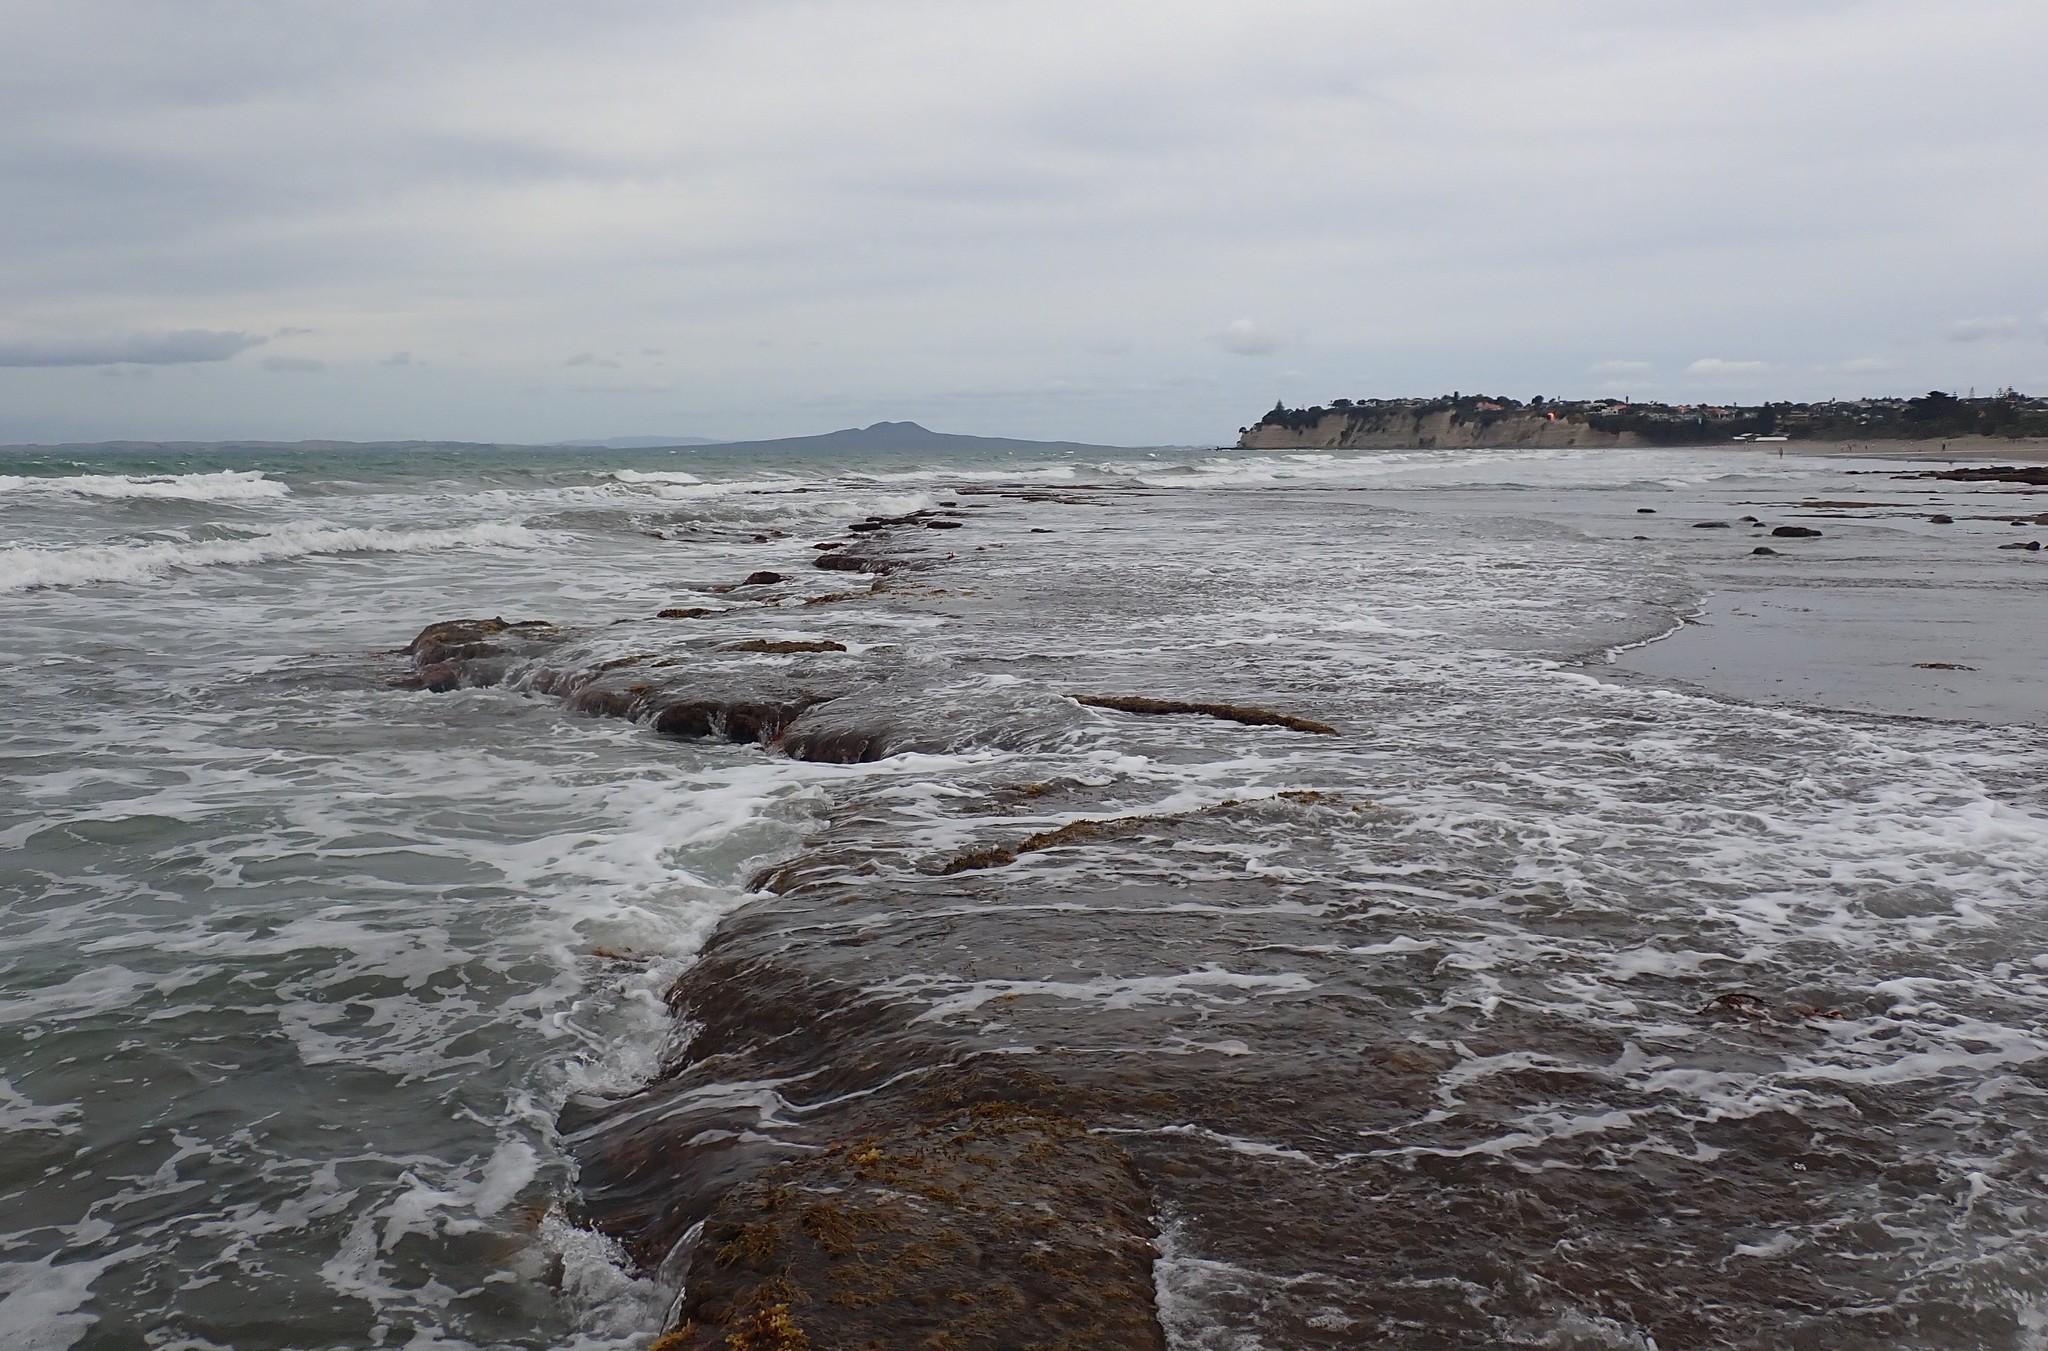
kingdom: Chromista
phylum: Ochrophyta
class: Phaeophyceae
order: Fucales
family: Hormosiraceae
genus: Hormosira
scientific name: Hormosira banksii
